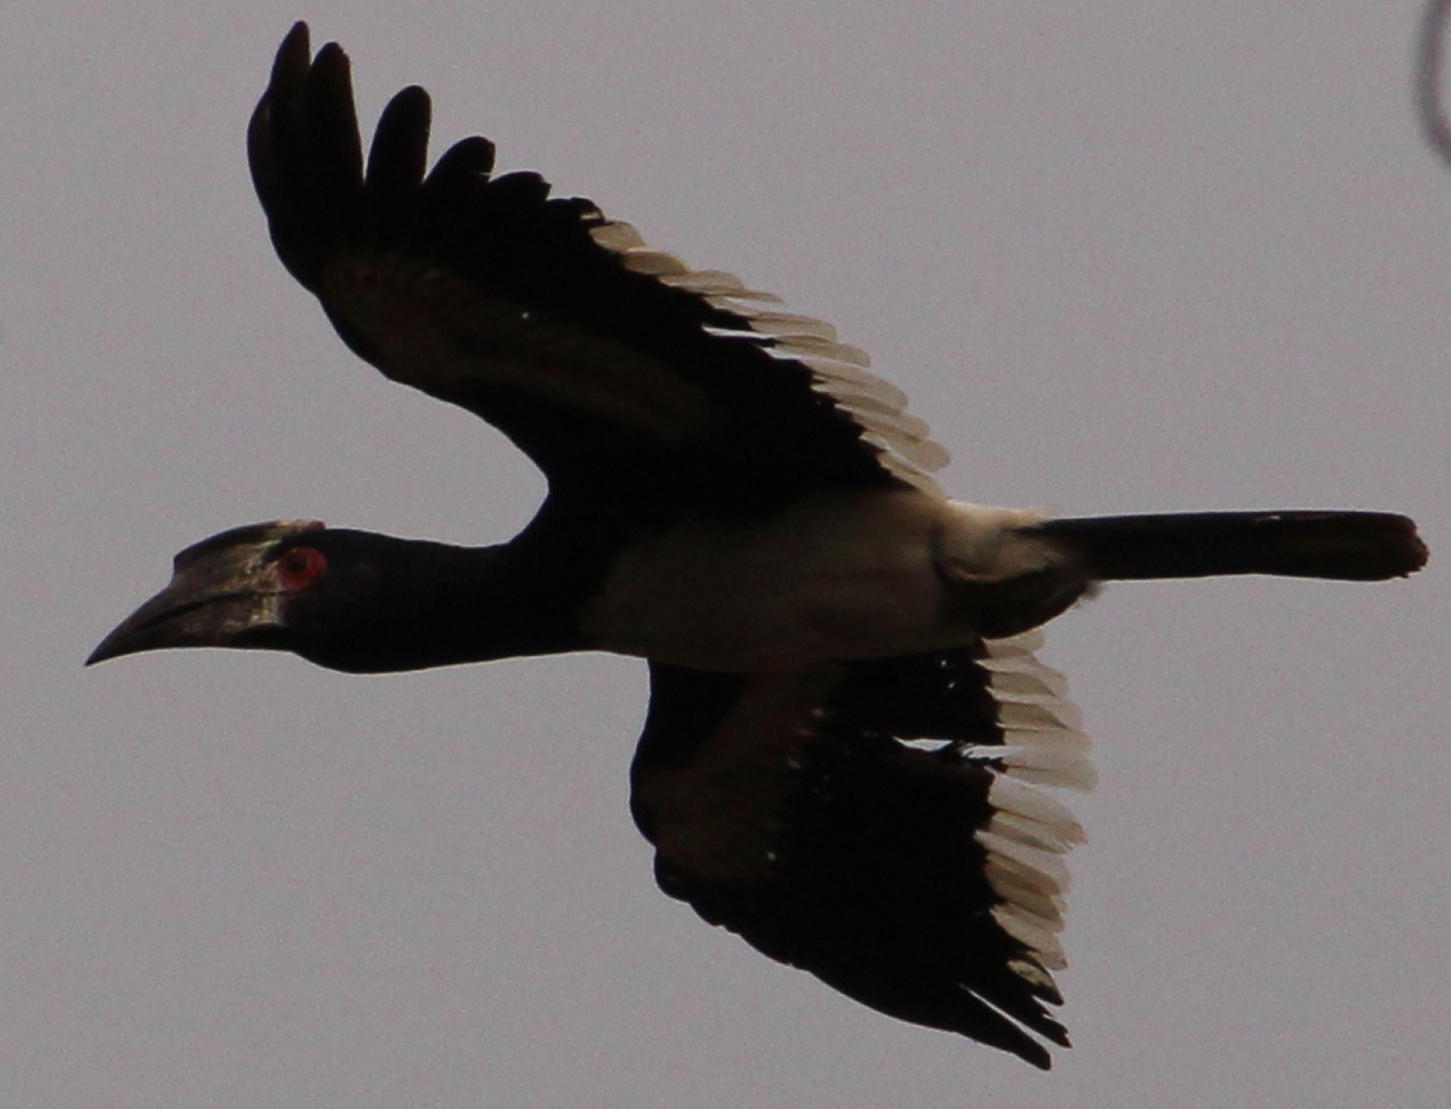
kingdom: Animalia
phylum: Chordata
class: Aves
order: Bucerotiformes
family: Bucerotidae
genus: Bycanistes
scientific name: Bycanistes bucinator
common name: Trumpeter hornbill
